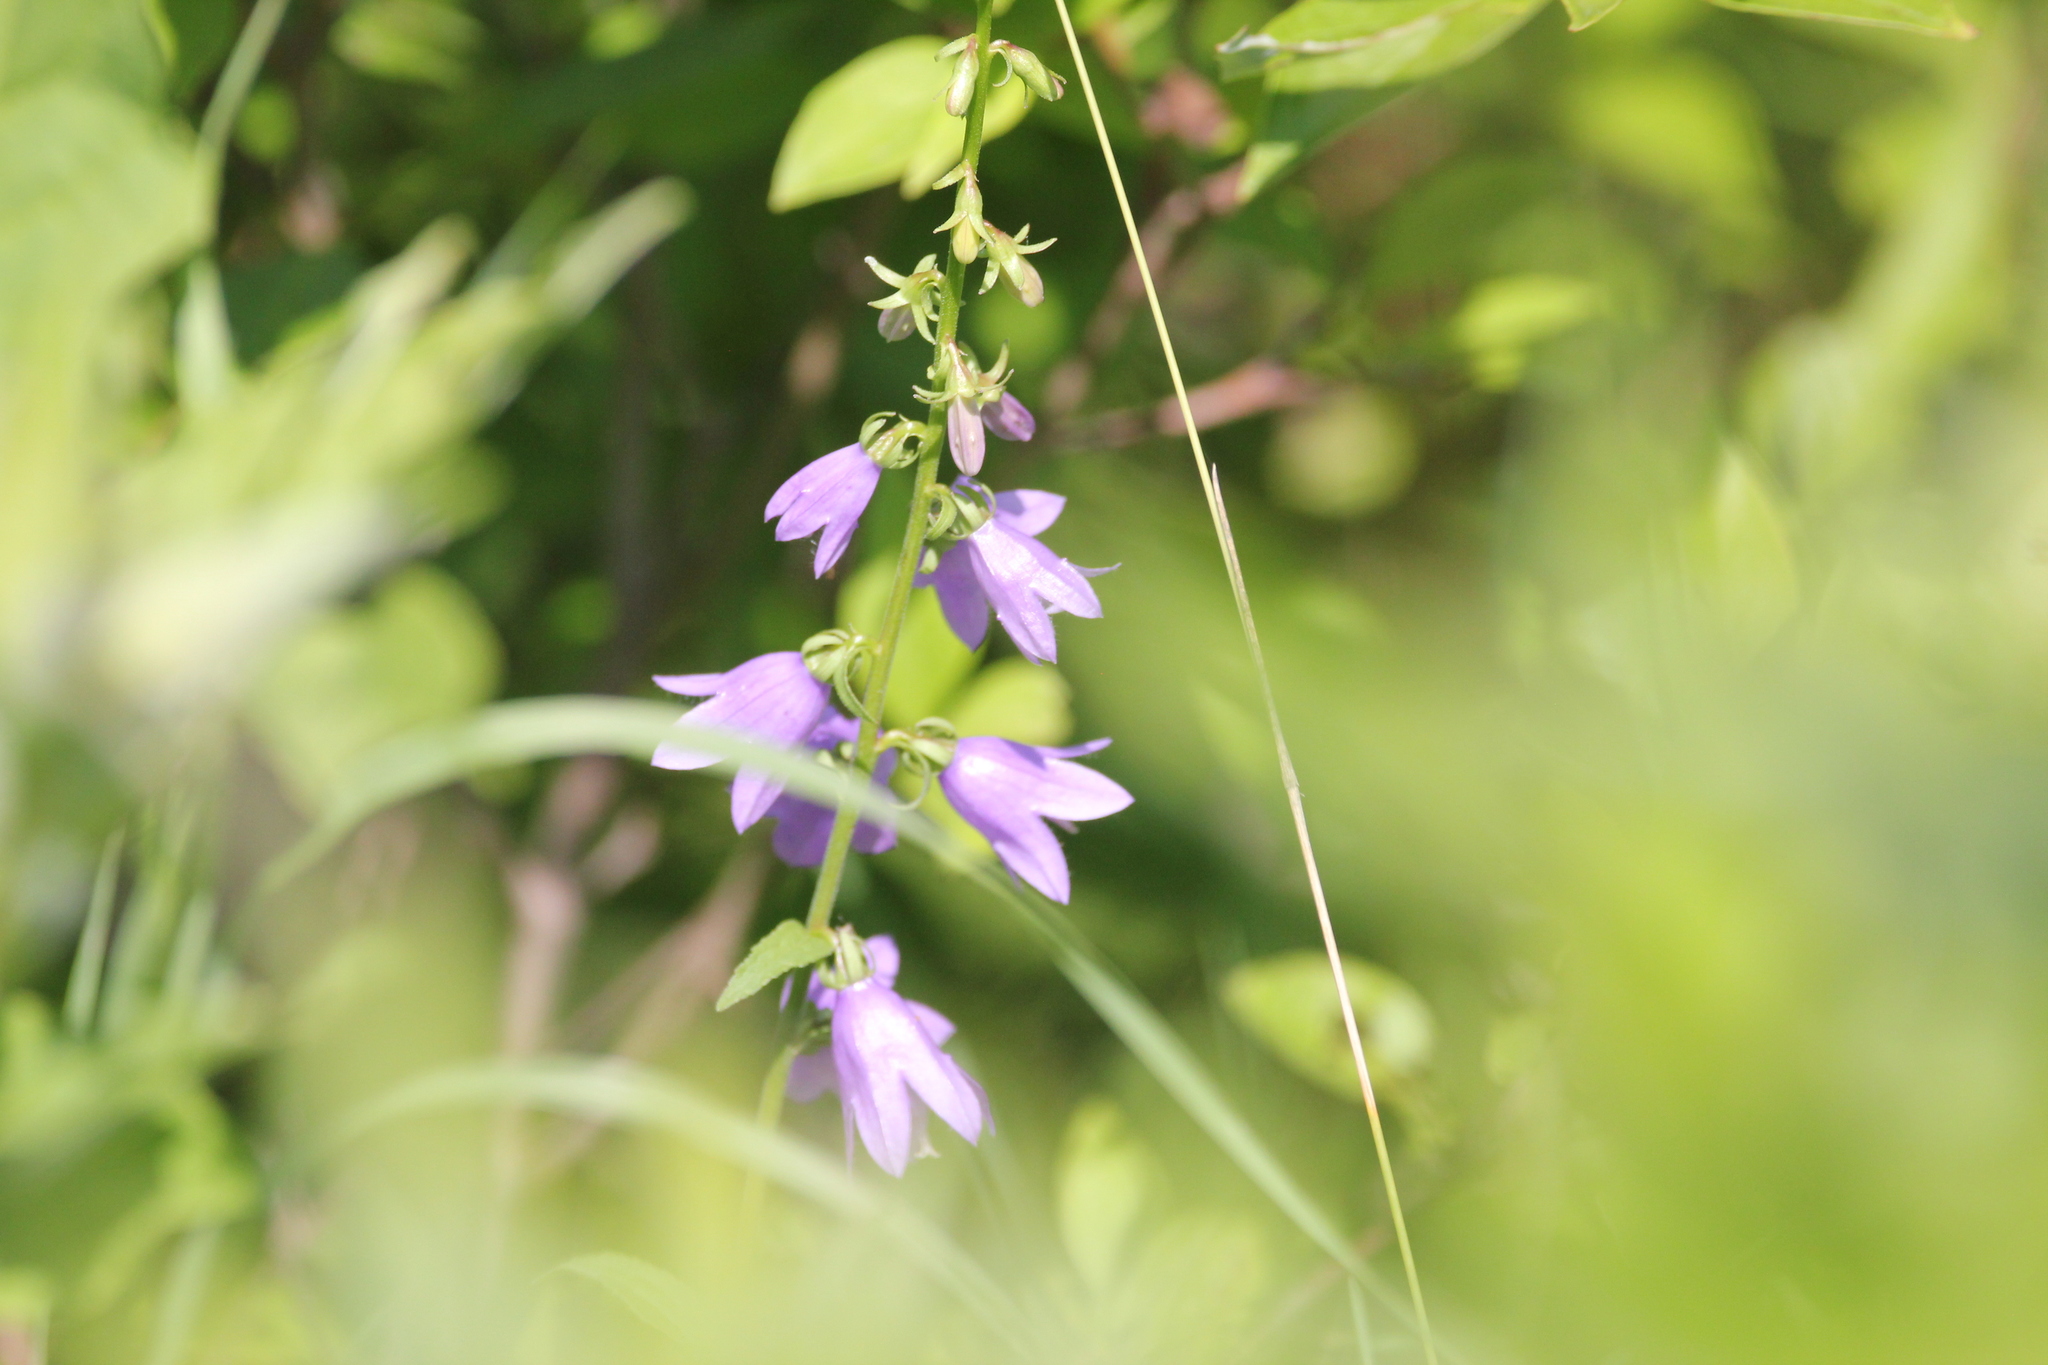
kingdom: Plantae
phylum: Tracheophyta
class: Magnoliopsida
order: Asterales
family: Campanulaceae
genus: Campanula
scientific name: Campanula rapunculoides
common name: Creeping bellflower
